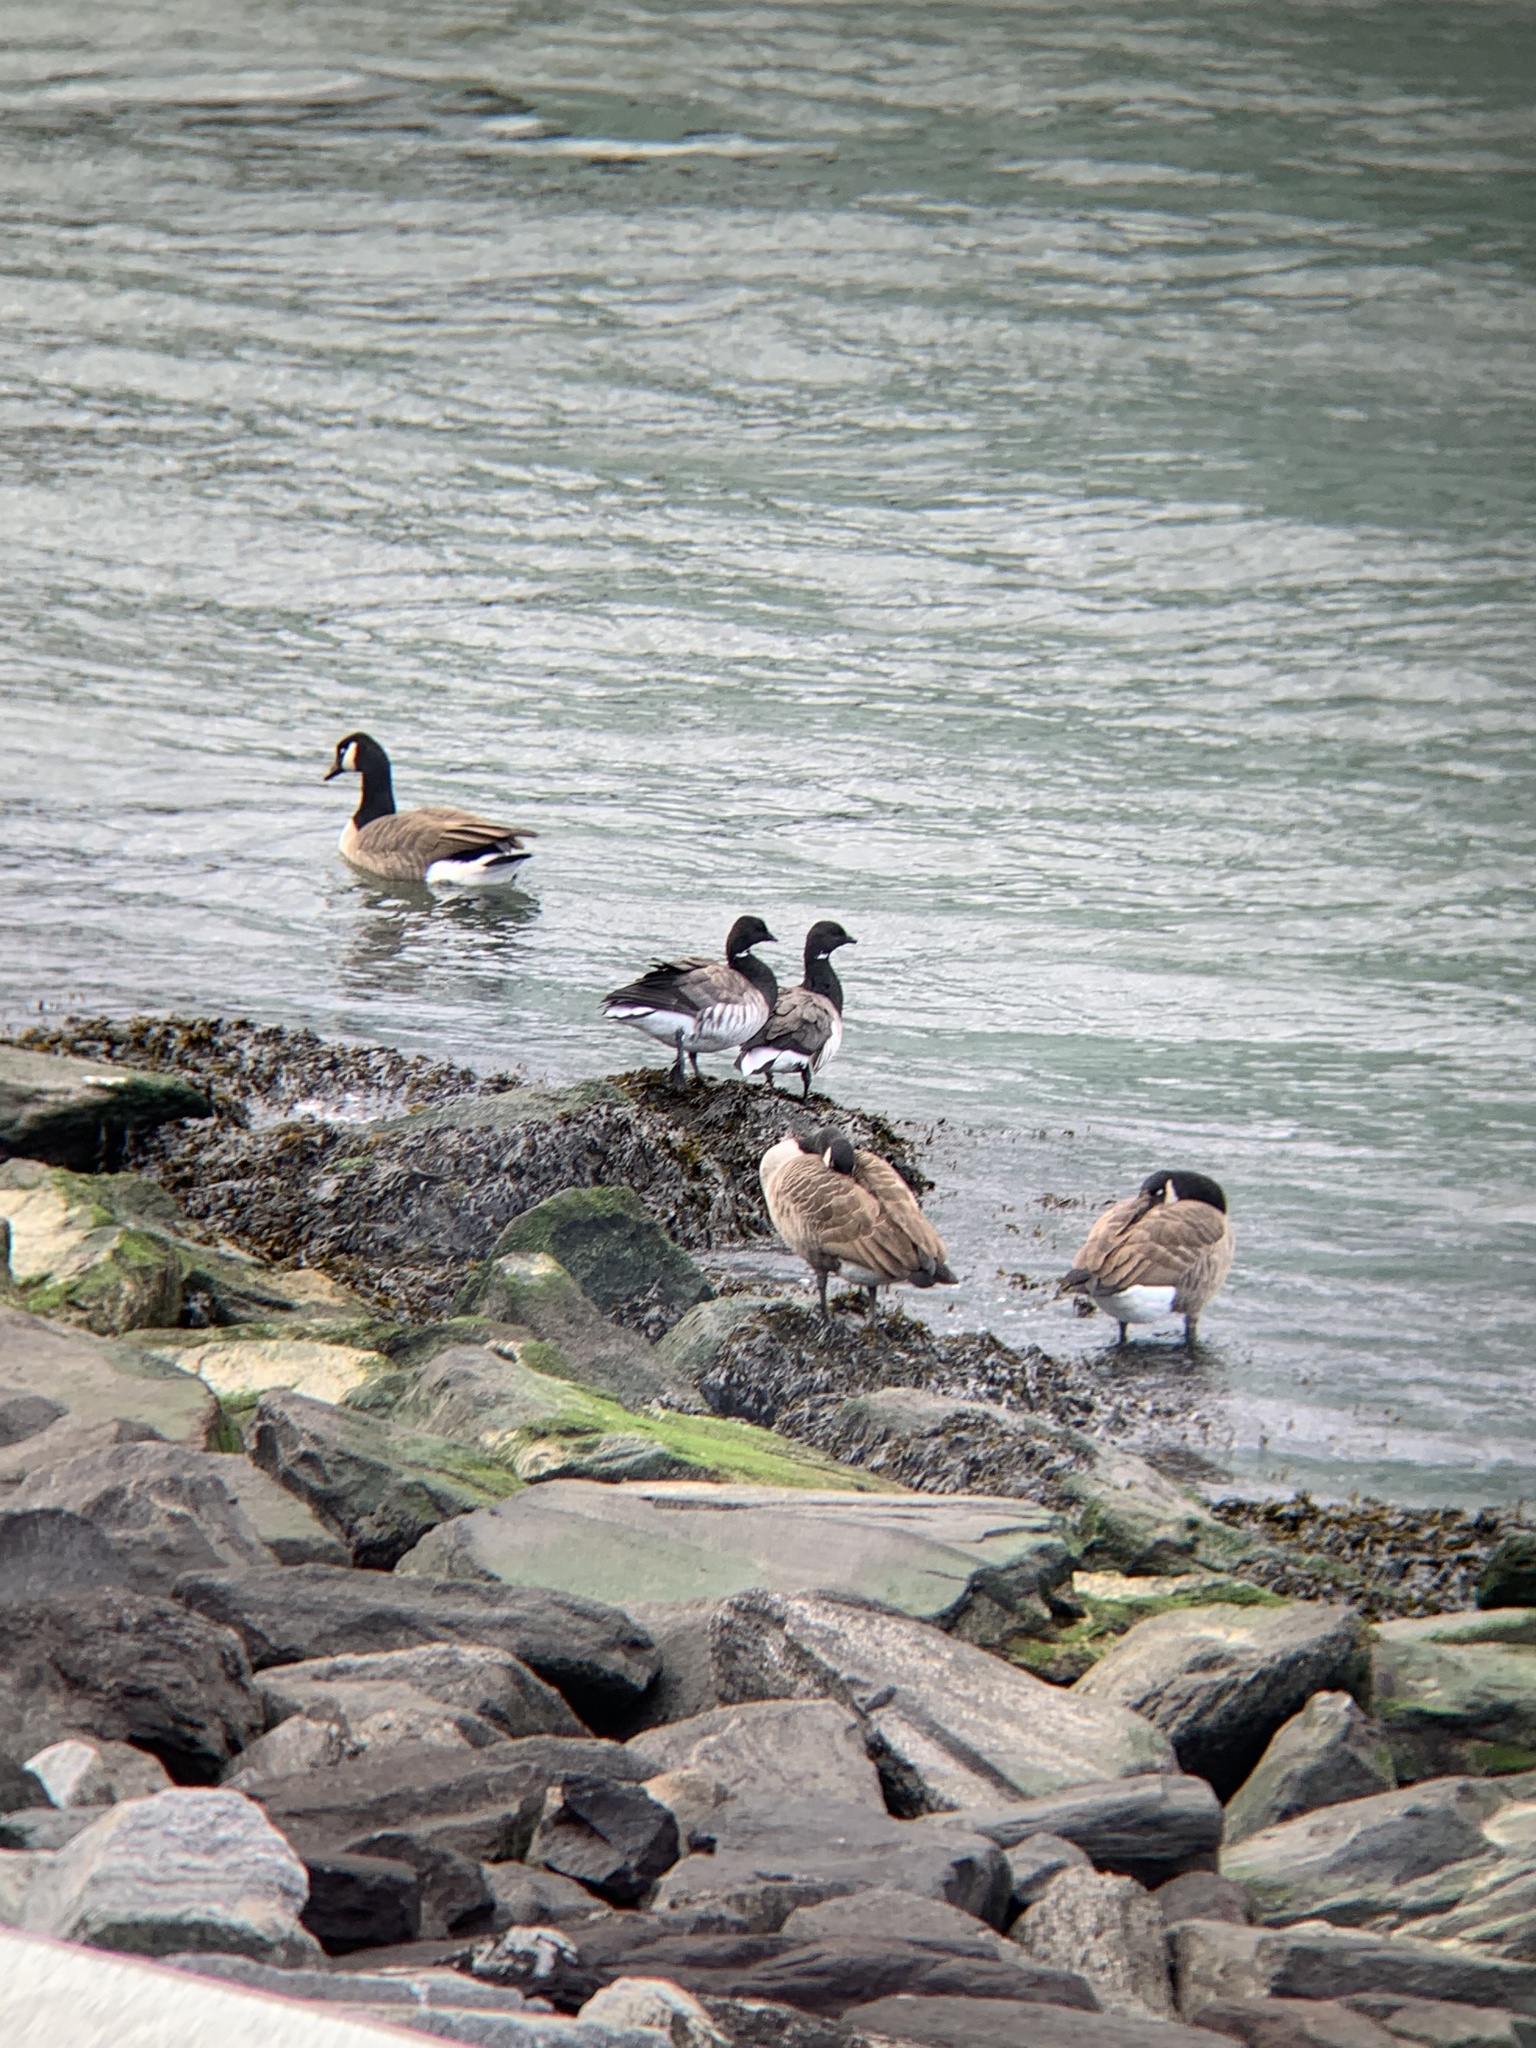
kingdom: Animalia
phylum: Chordata
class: Aves
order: Anseriformes
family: Anatidae
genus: Branta
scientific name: Branta bernicla
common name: Brant goose
